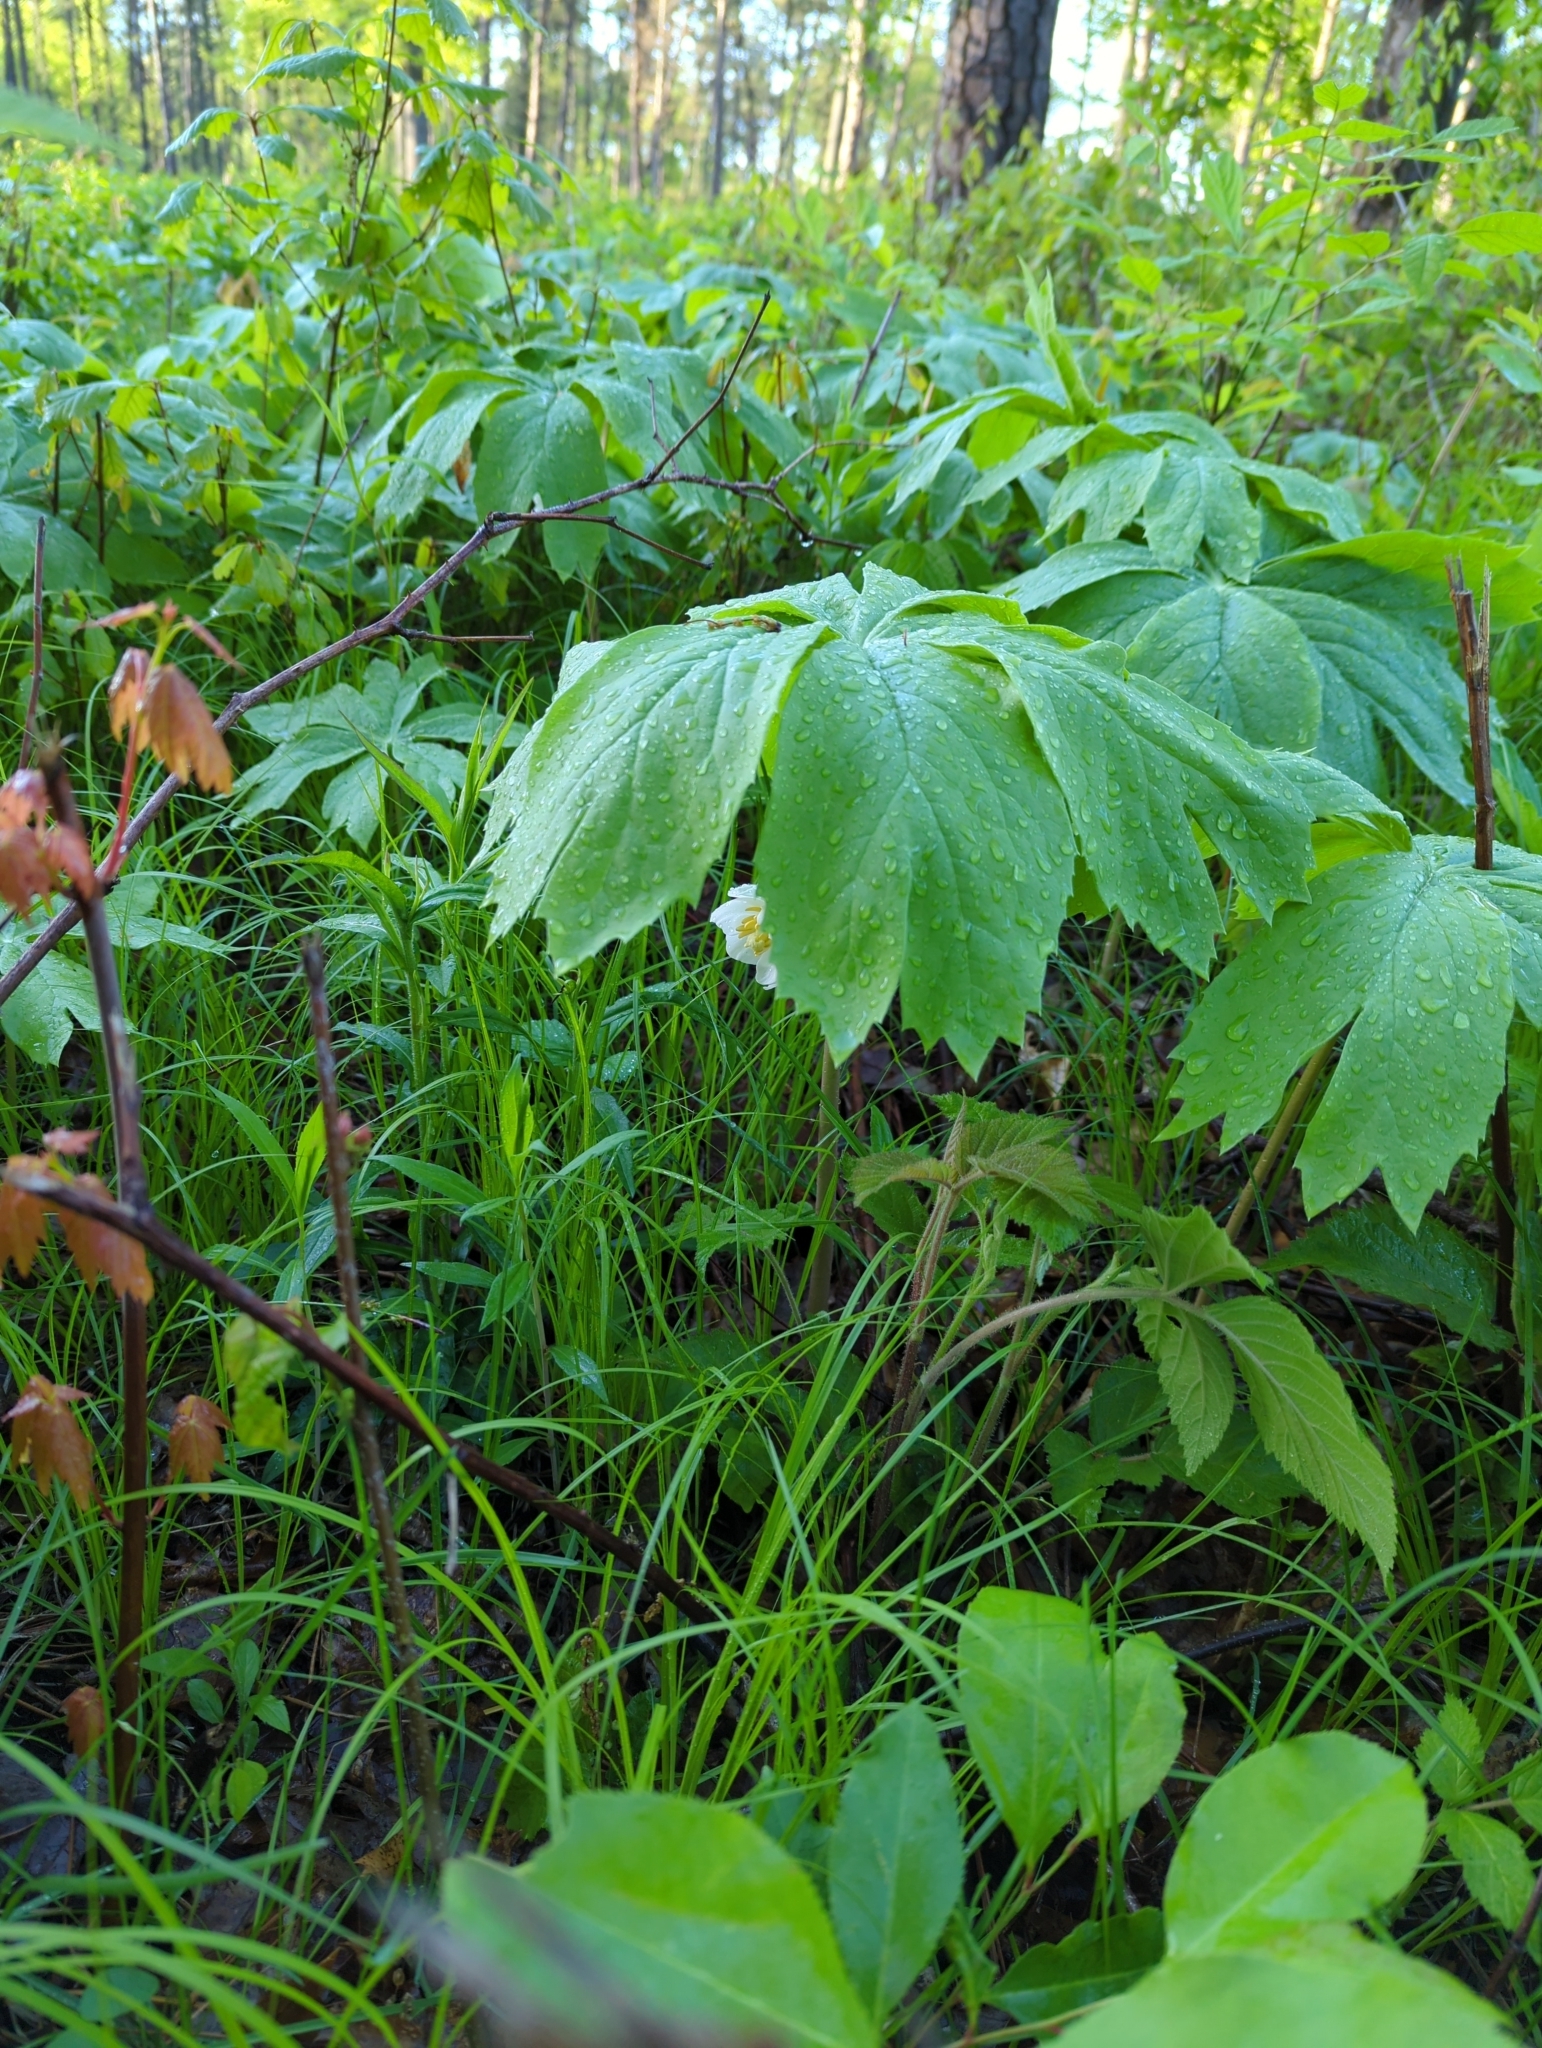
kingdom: Plantae
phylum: Tracheophyta
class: Magnoliopsida
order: Ranunculales
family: Berberidaceae
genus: Podophyllum
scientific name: Podophyllum peltatum
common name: Wild mandrake
